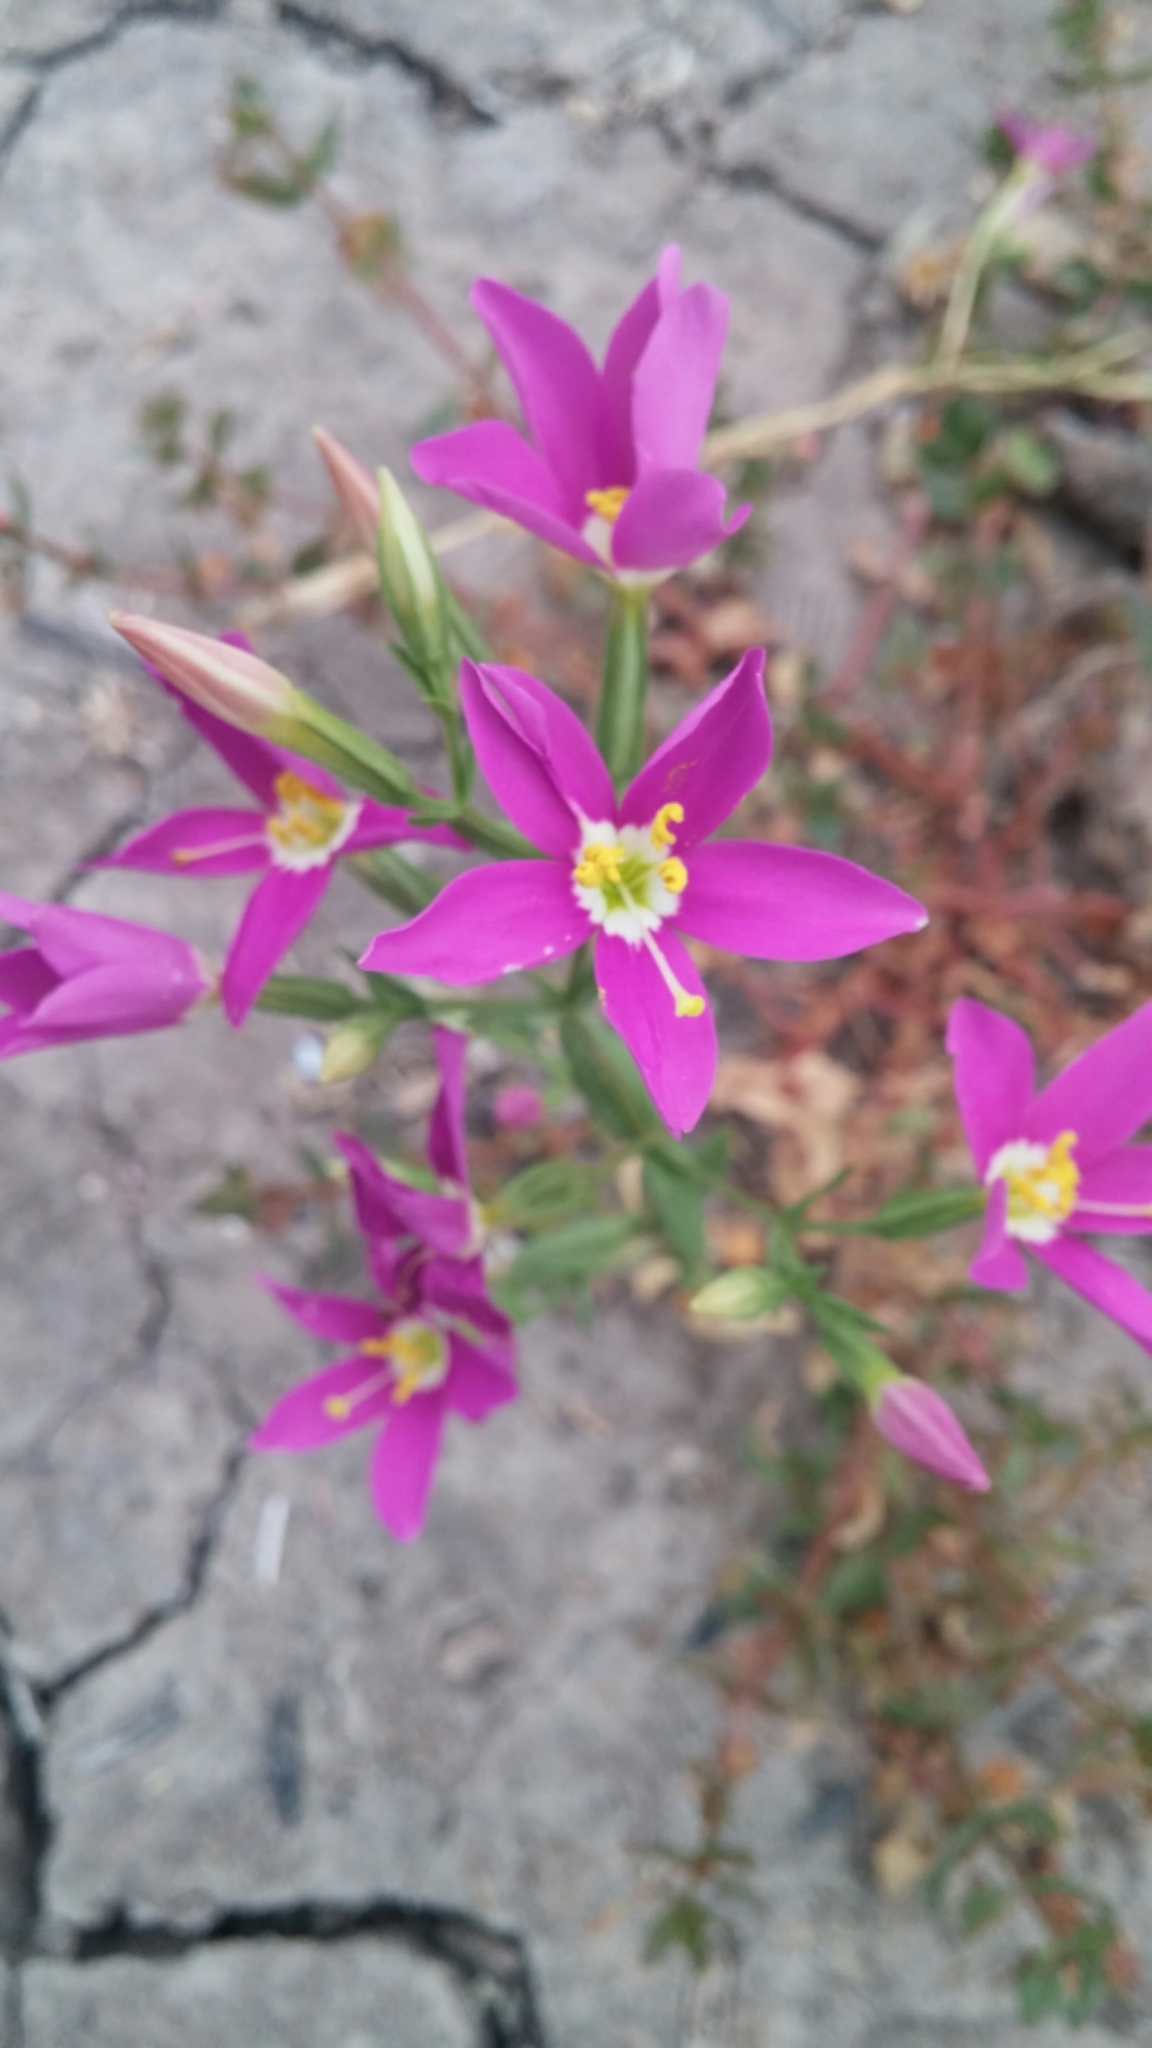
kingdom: Plantae
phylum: Tracheophyta
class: Magnoliopsida
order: Gentianales
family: Gentianaceae
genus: Zeltnera
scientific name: Zeltnera venusta
